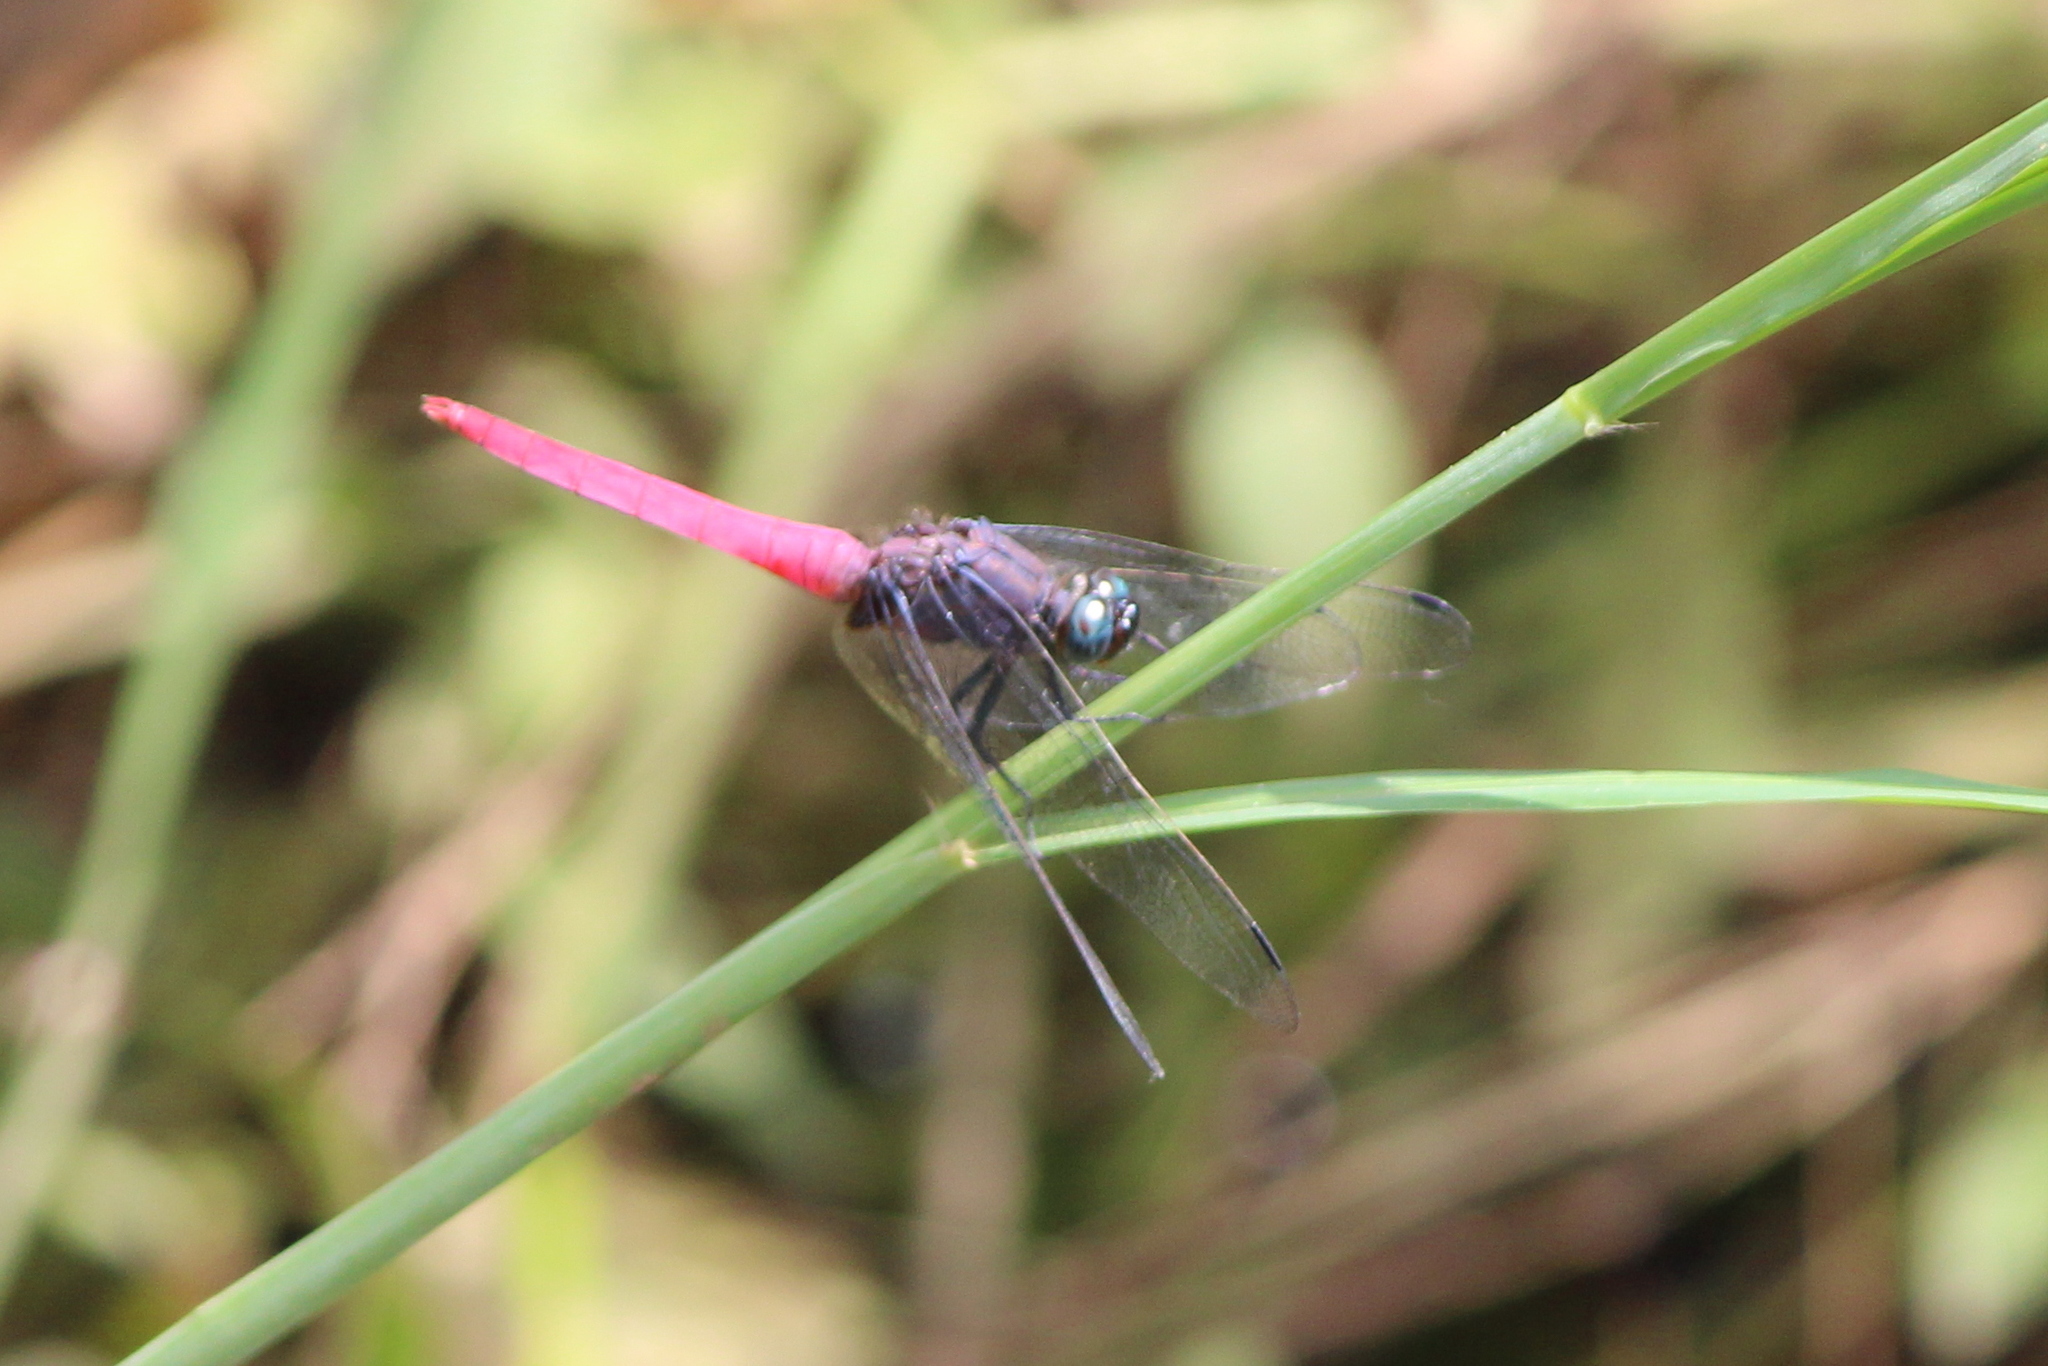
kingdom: Animalia
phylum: Arthropoda
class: Insecta
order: Odonata
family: Libellulidae
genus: Orthetrum
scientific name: Orthetrum pruinosum
